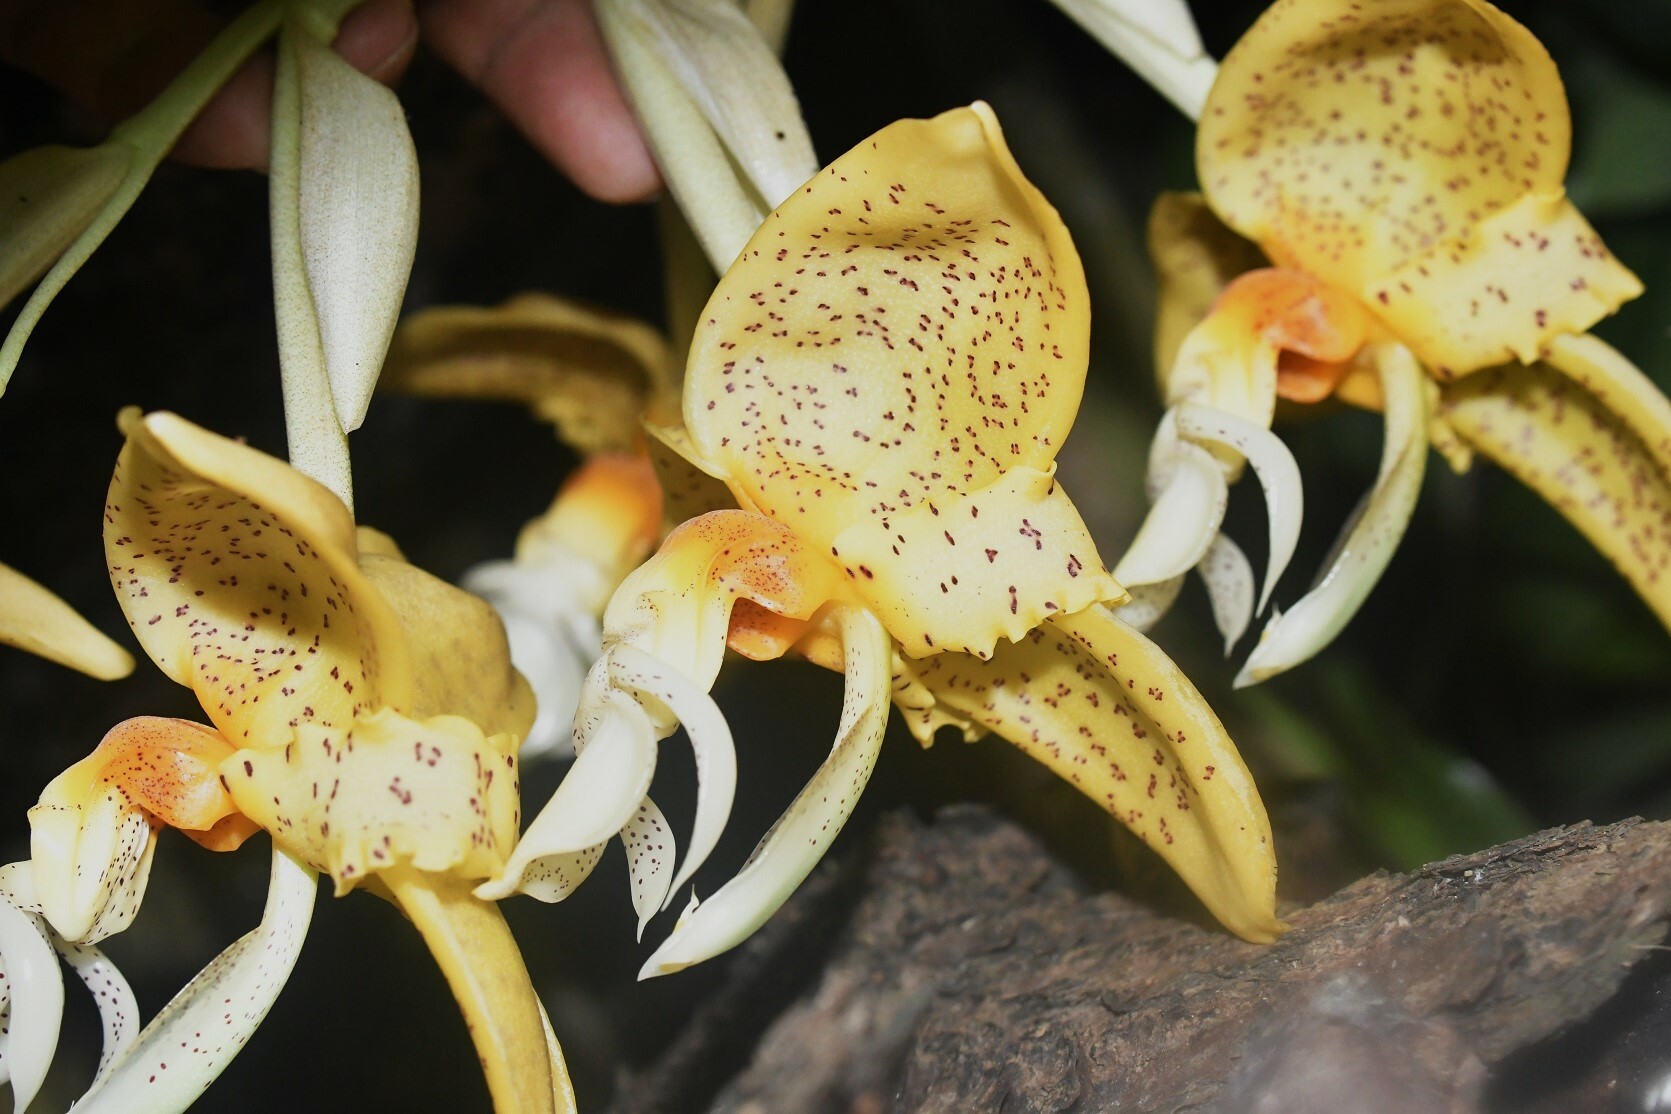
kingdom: Plantae
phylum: Tracheophyta
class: Liliopsida
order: Asparagales
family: Orchidaceae
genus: Stanhopea
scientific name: Stanhopea graveolens
